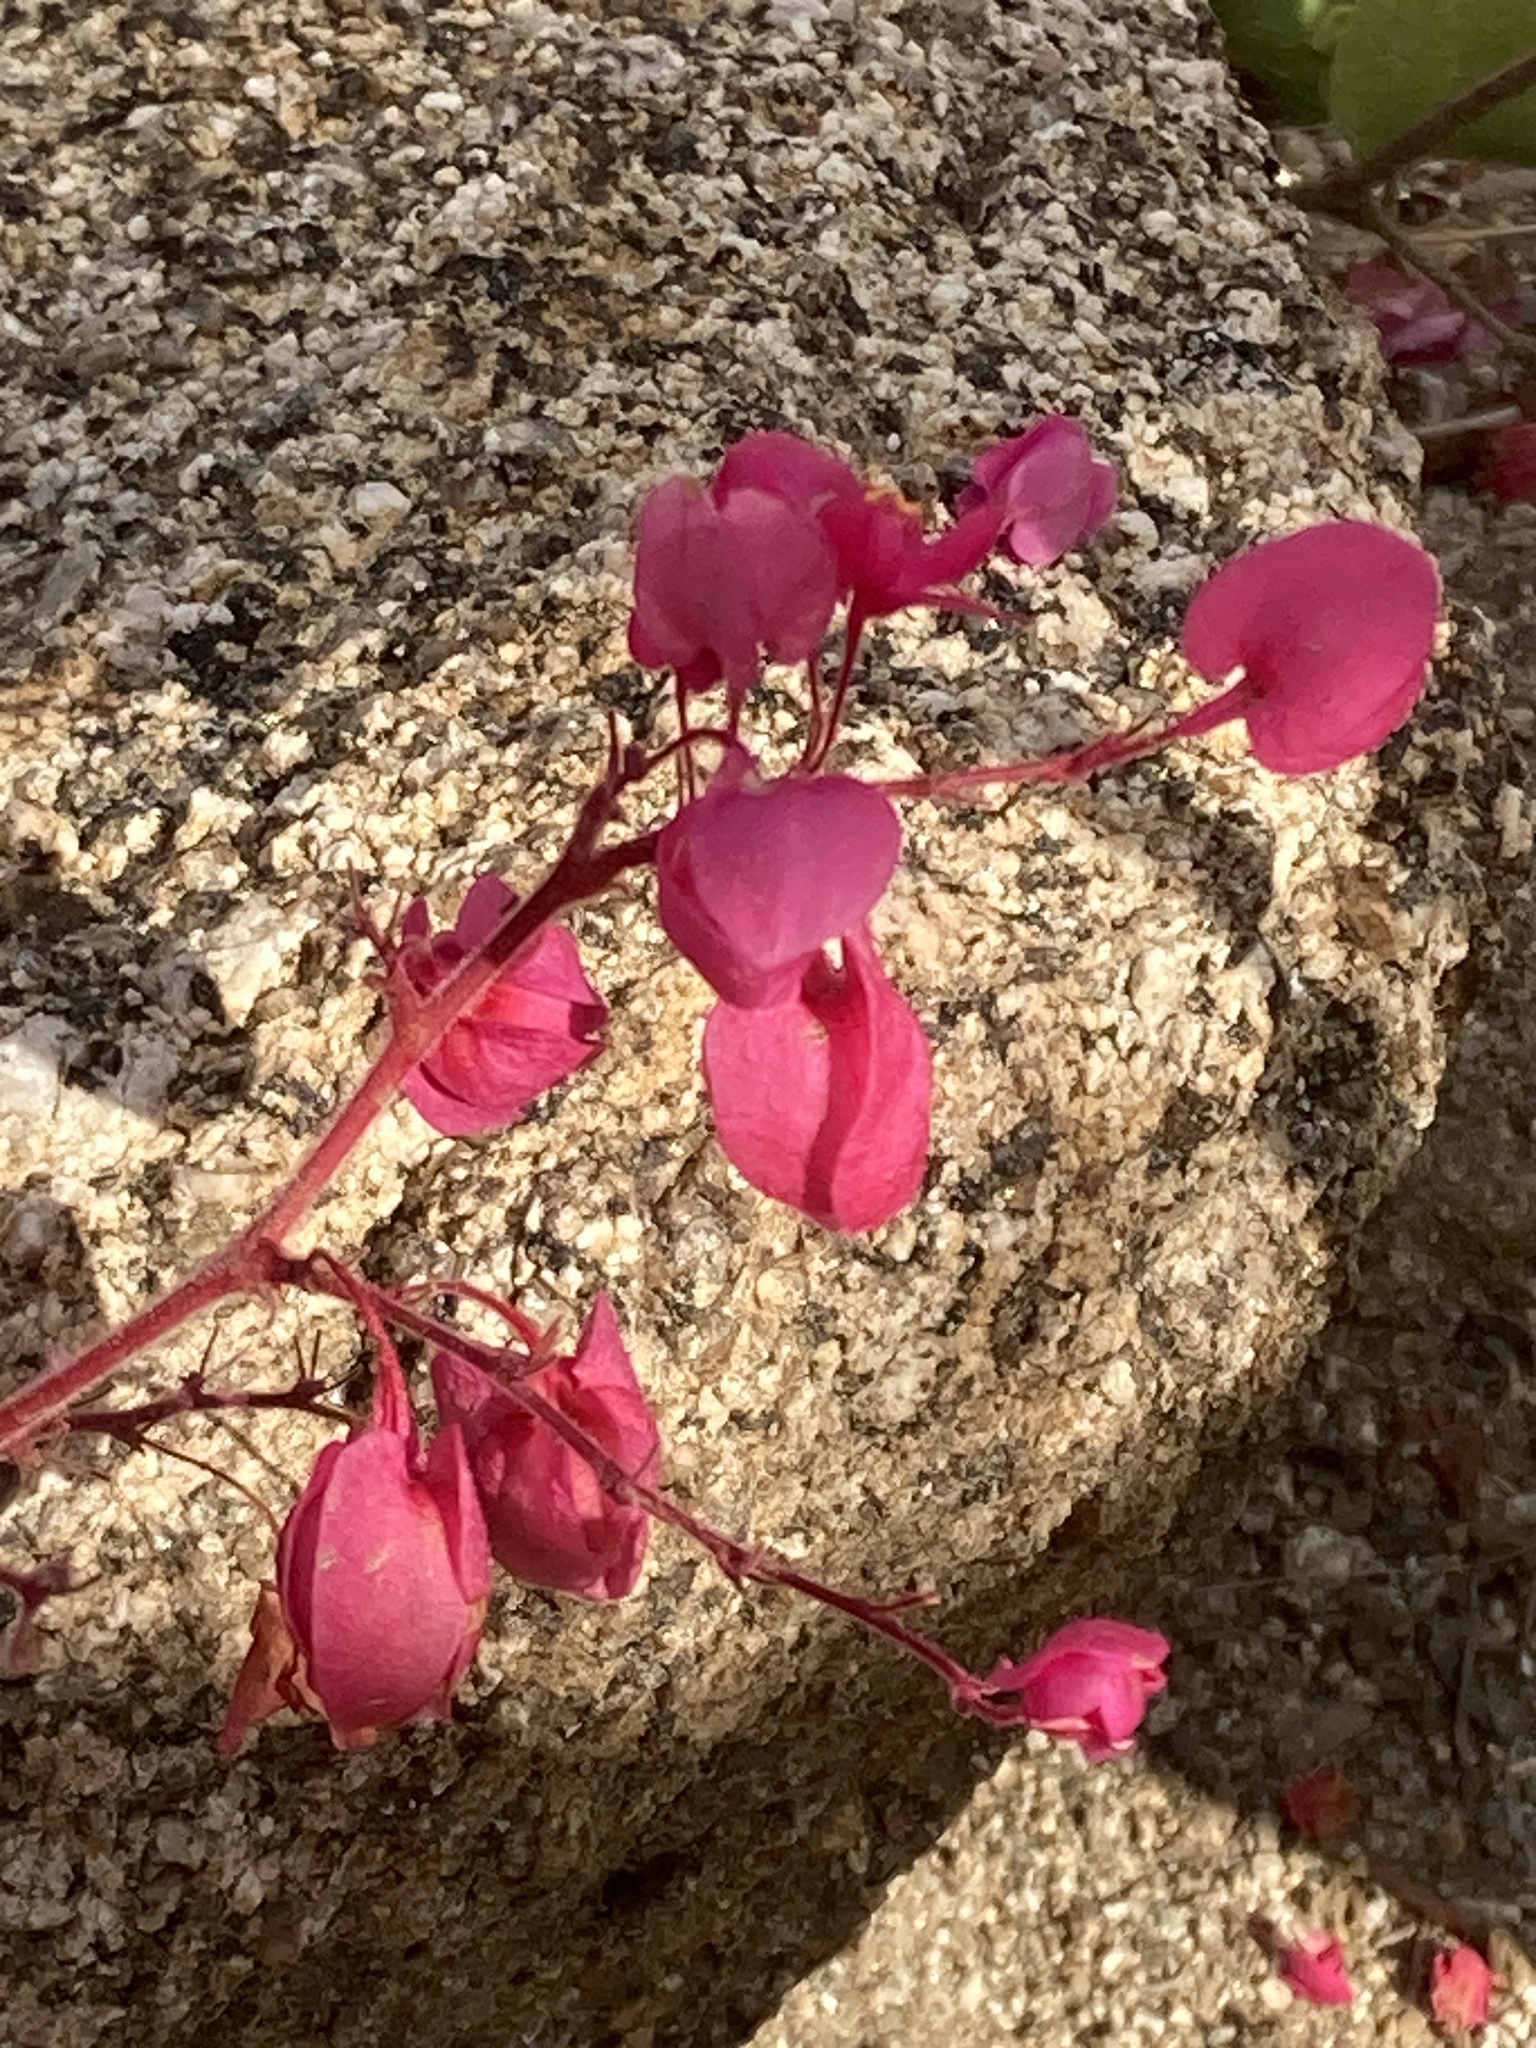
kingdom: Plantae
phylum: Tracheophyta
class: Magnoliopsida
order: Caryophyllales
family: Polygonaceae
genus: Antigonon
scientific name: Antigonon leptopus
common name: Coral vine
